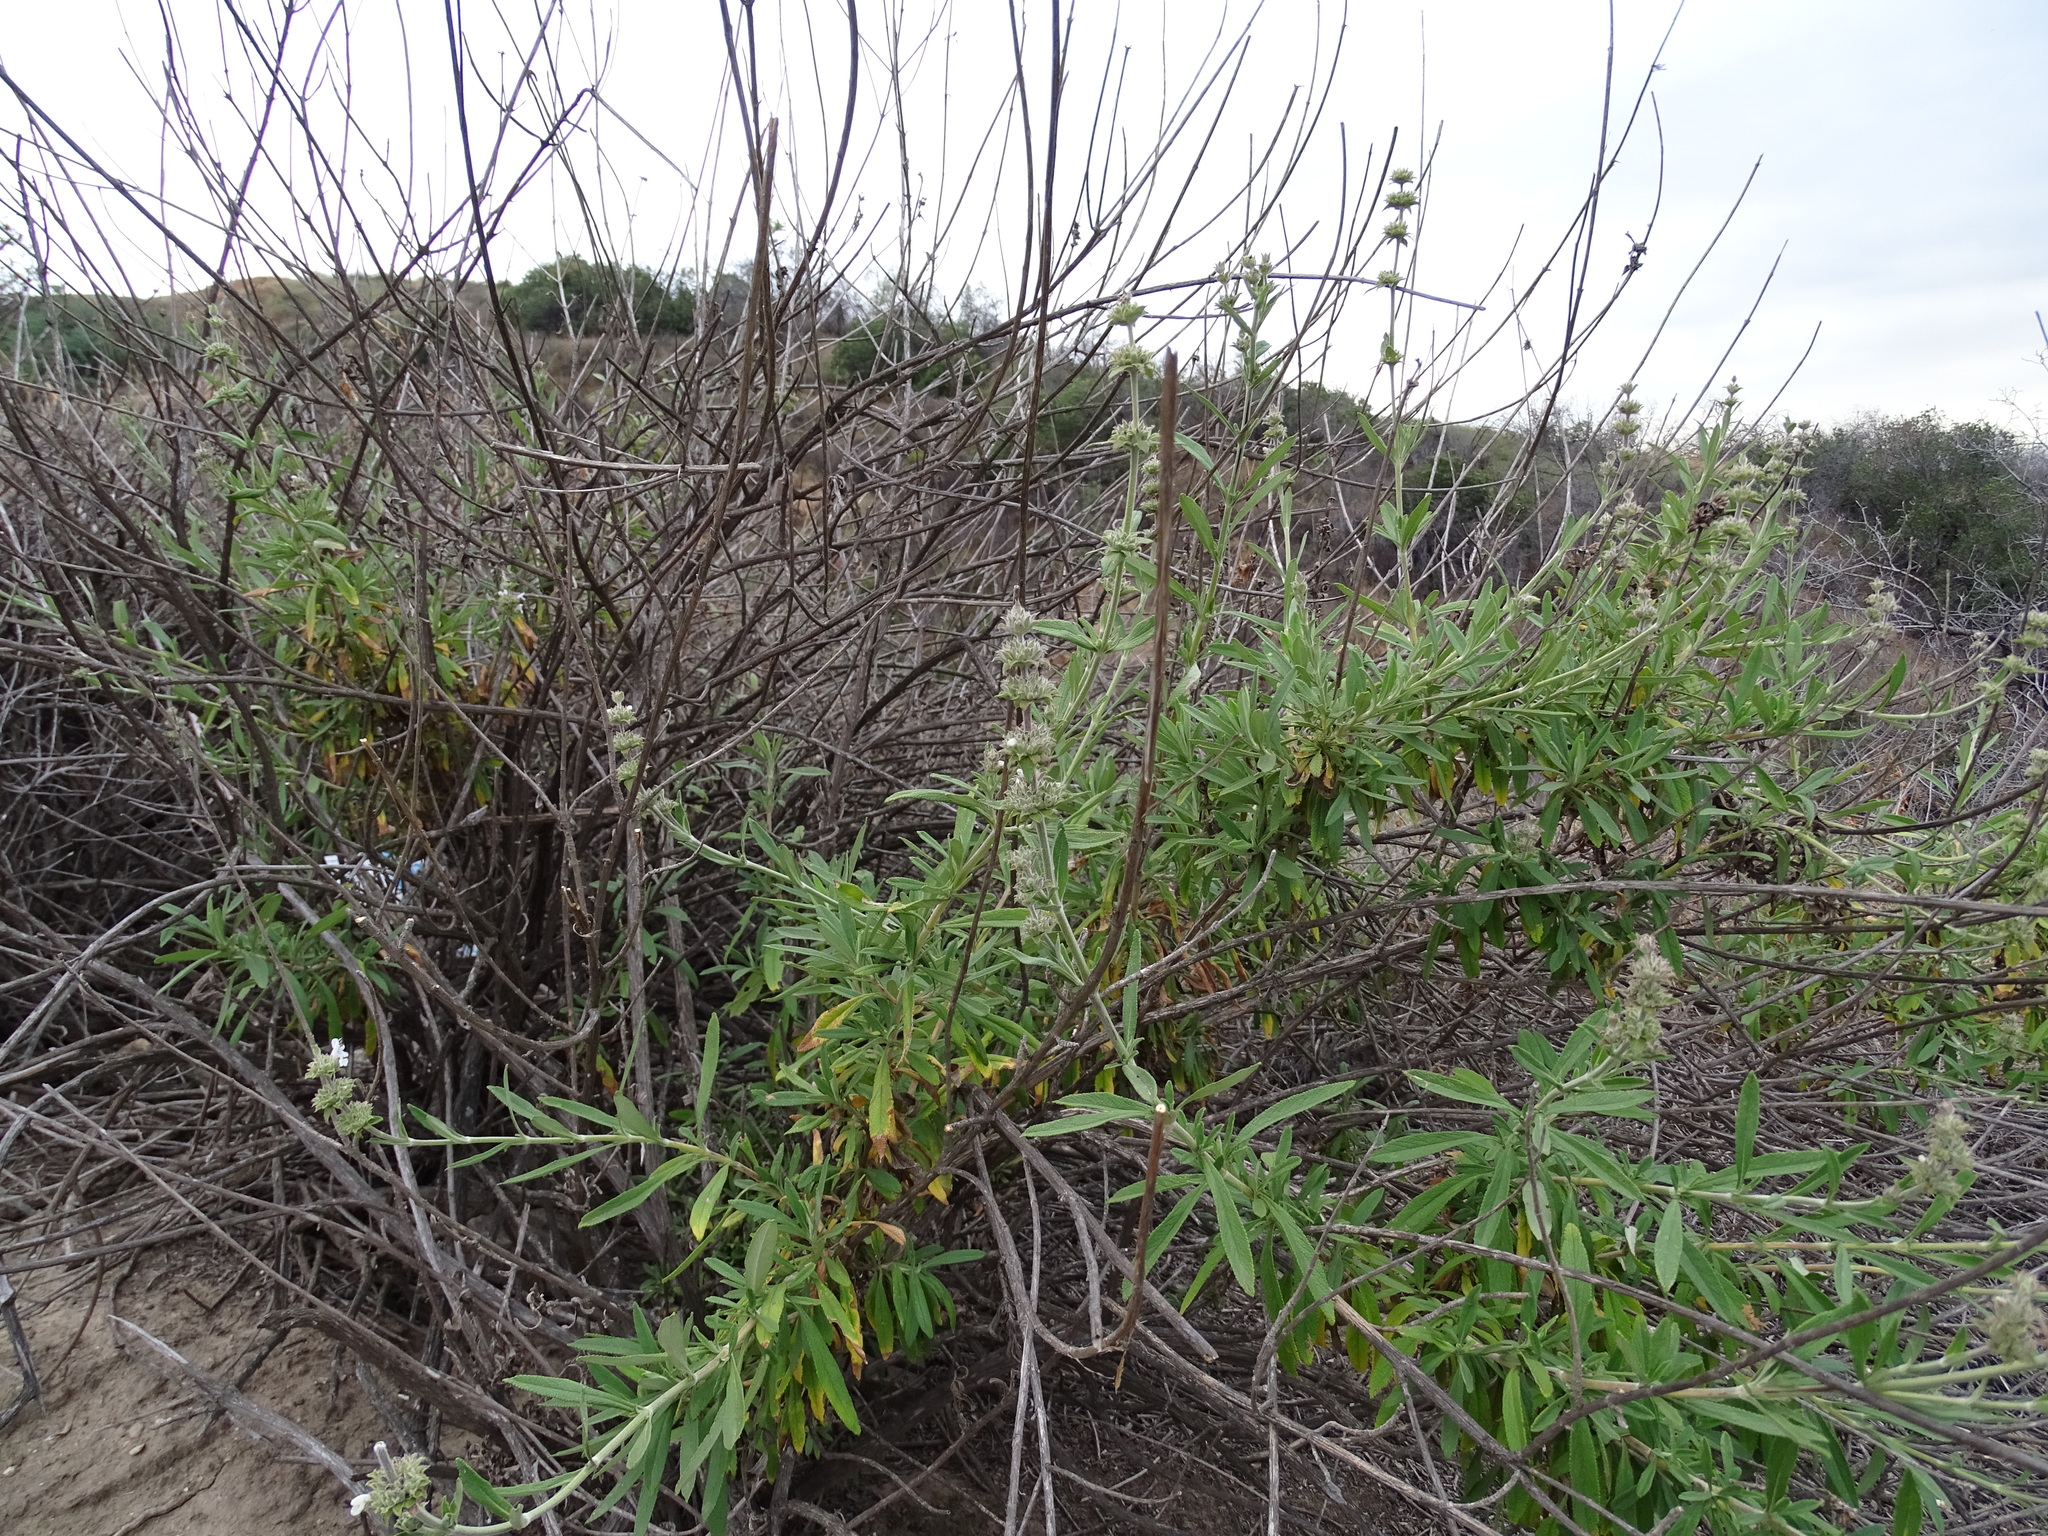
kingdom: Plantae
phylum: Tracheophyta
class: Magnoliopsida
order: Lamiales
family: Lamiaceae
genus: Salvia
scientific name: Salvia mellifera
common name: Black sage
